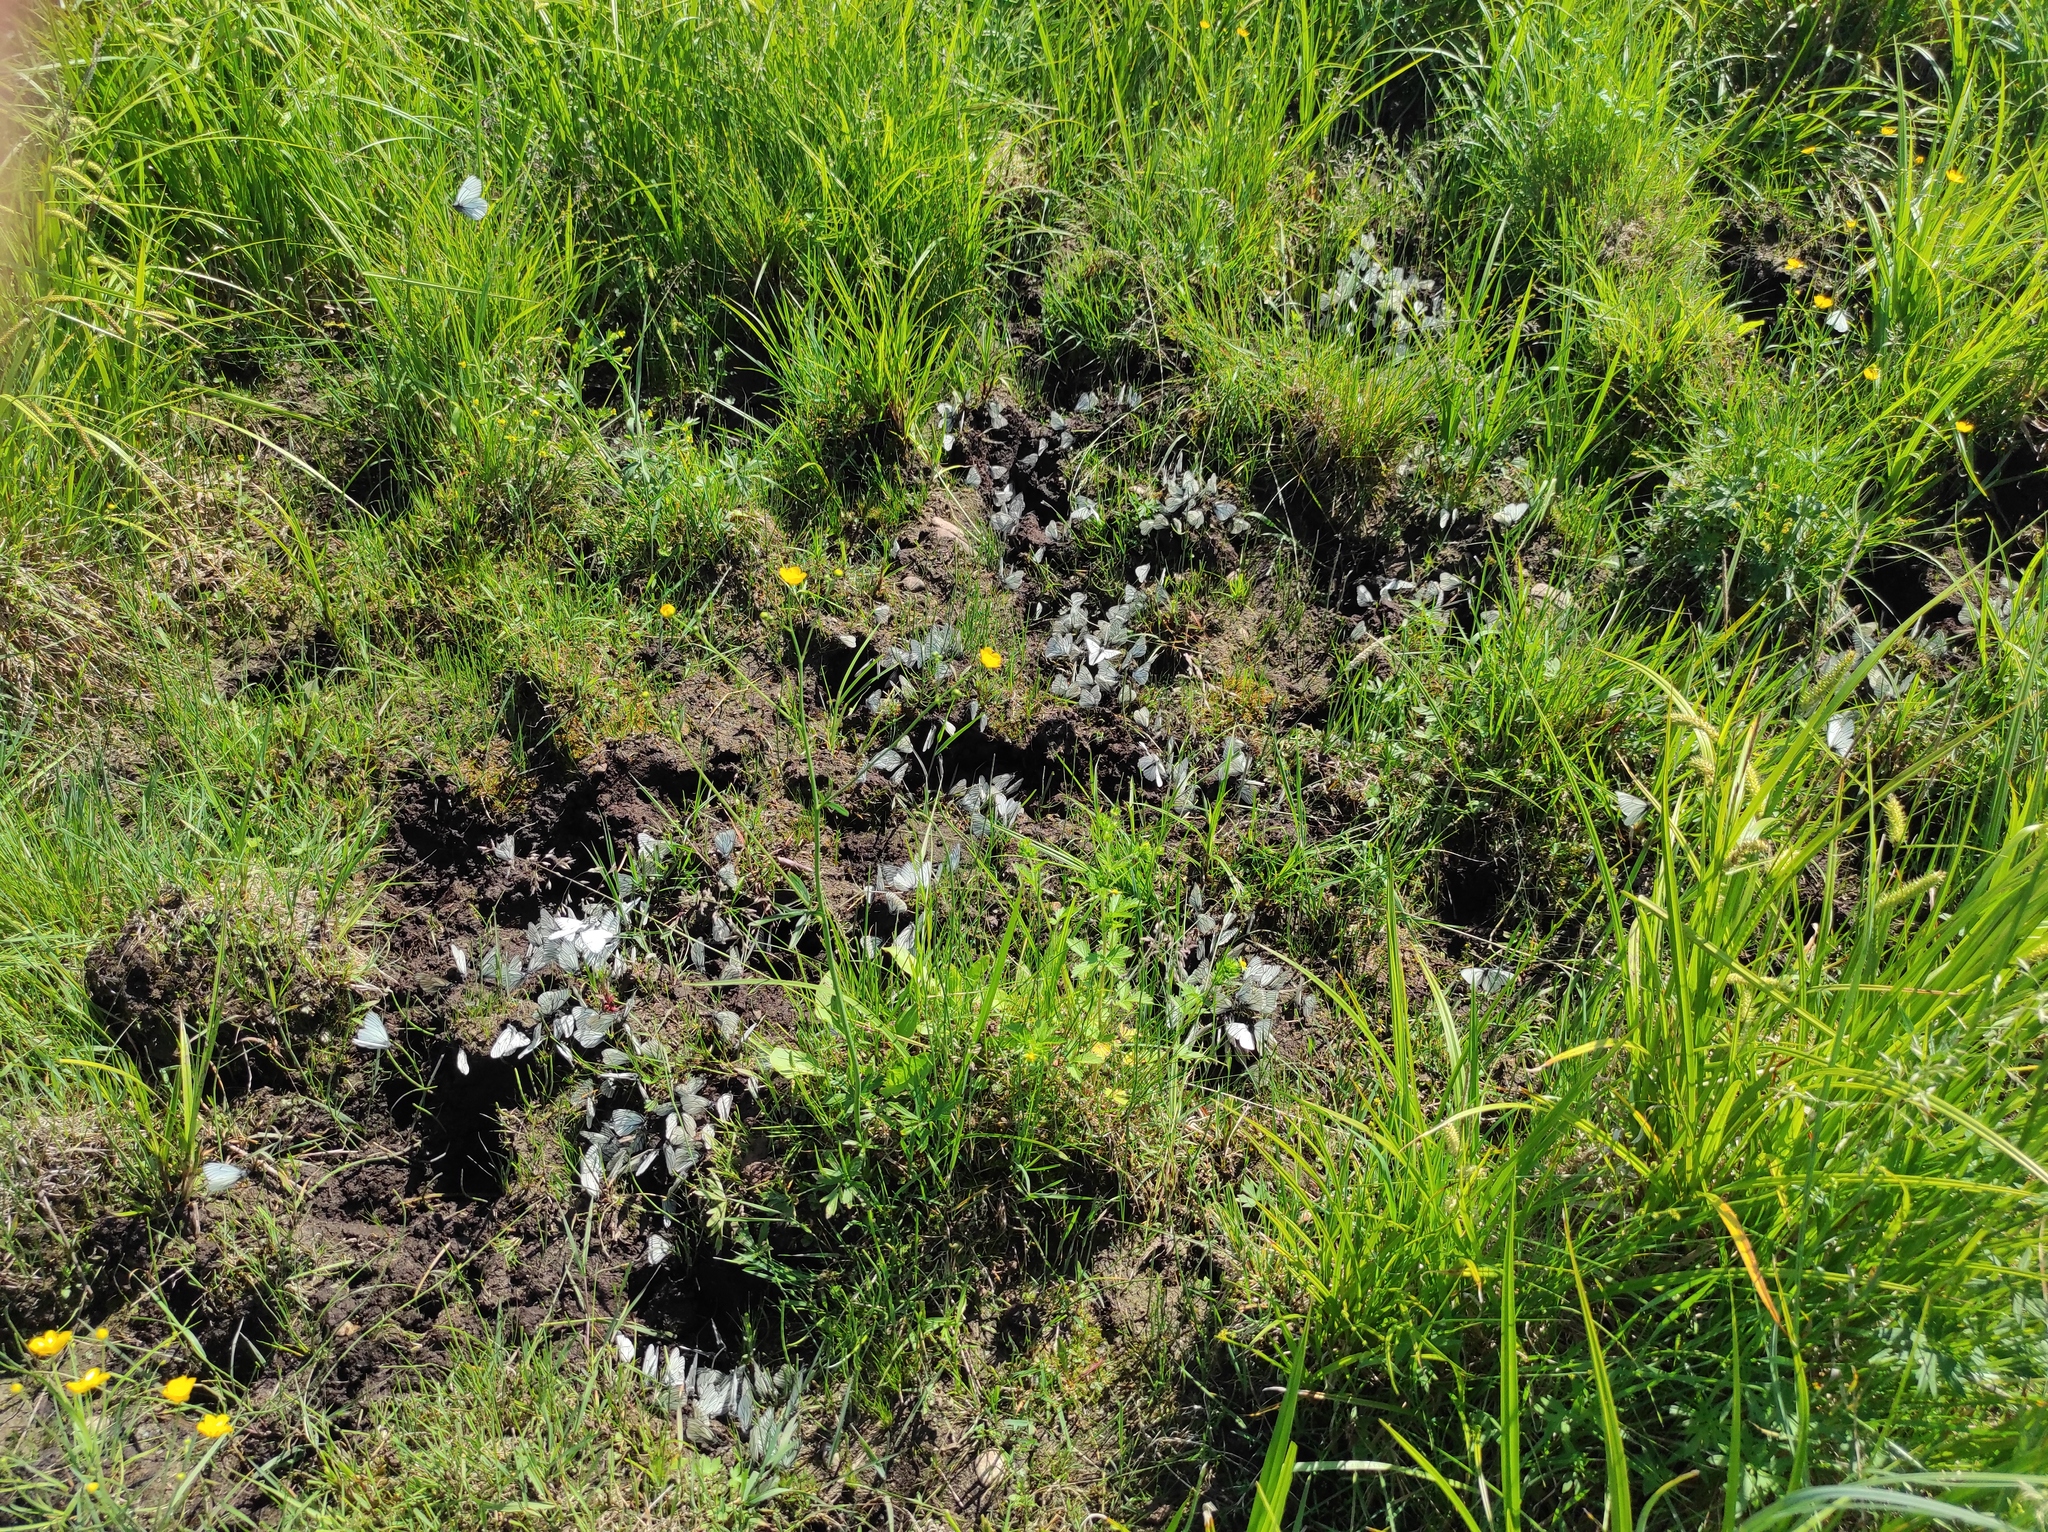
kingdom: Animalia
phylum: Arthropoda
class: Insecta
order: Lepidoptera
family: Pieridae
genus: Aporia
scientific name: Aporia crataegi
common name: Black-veined white
